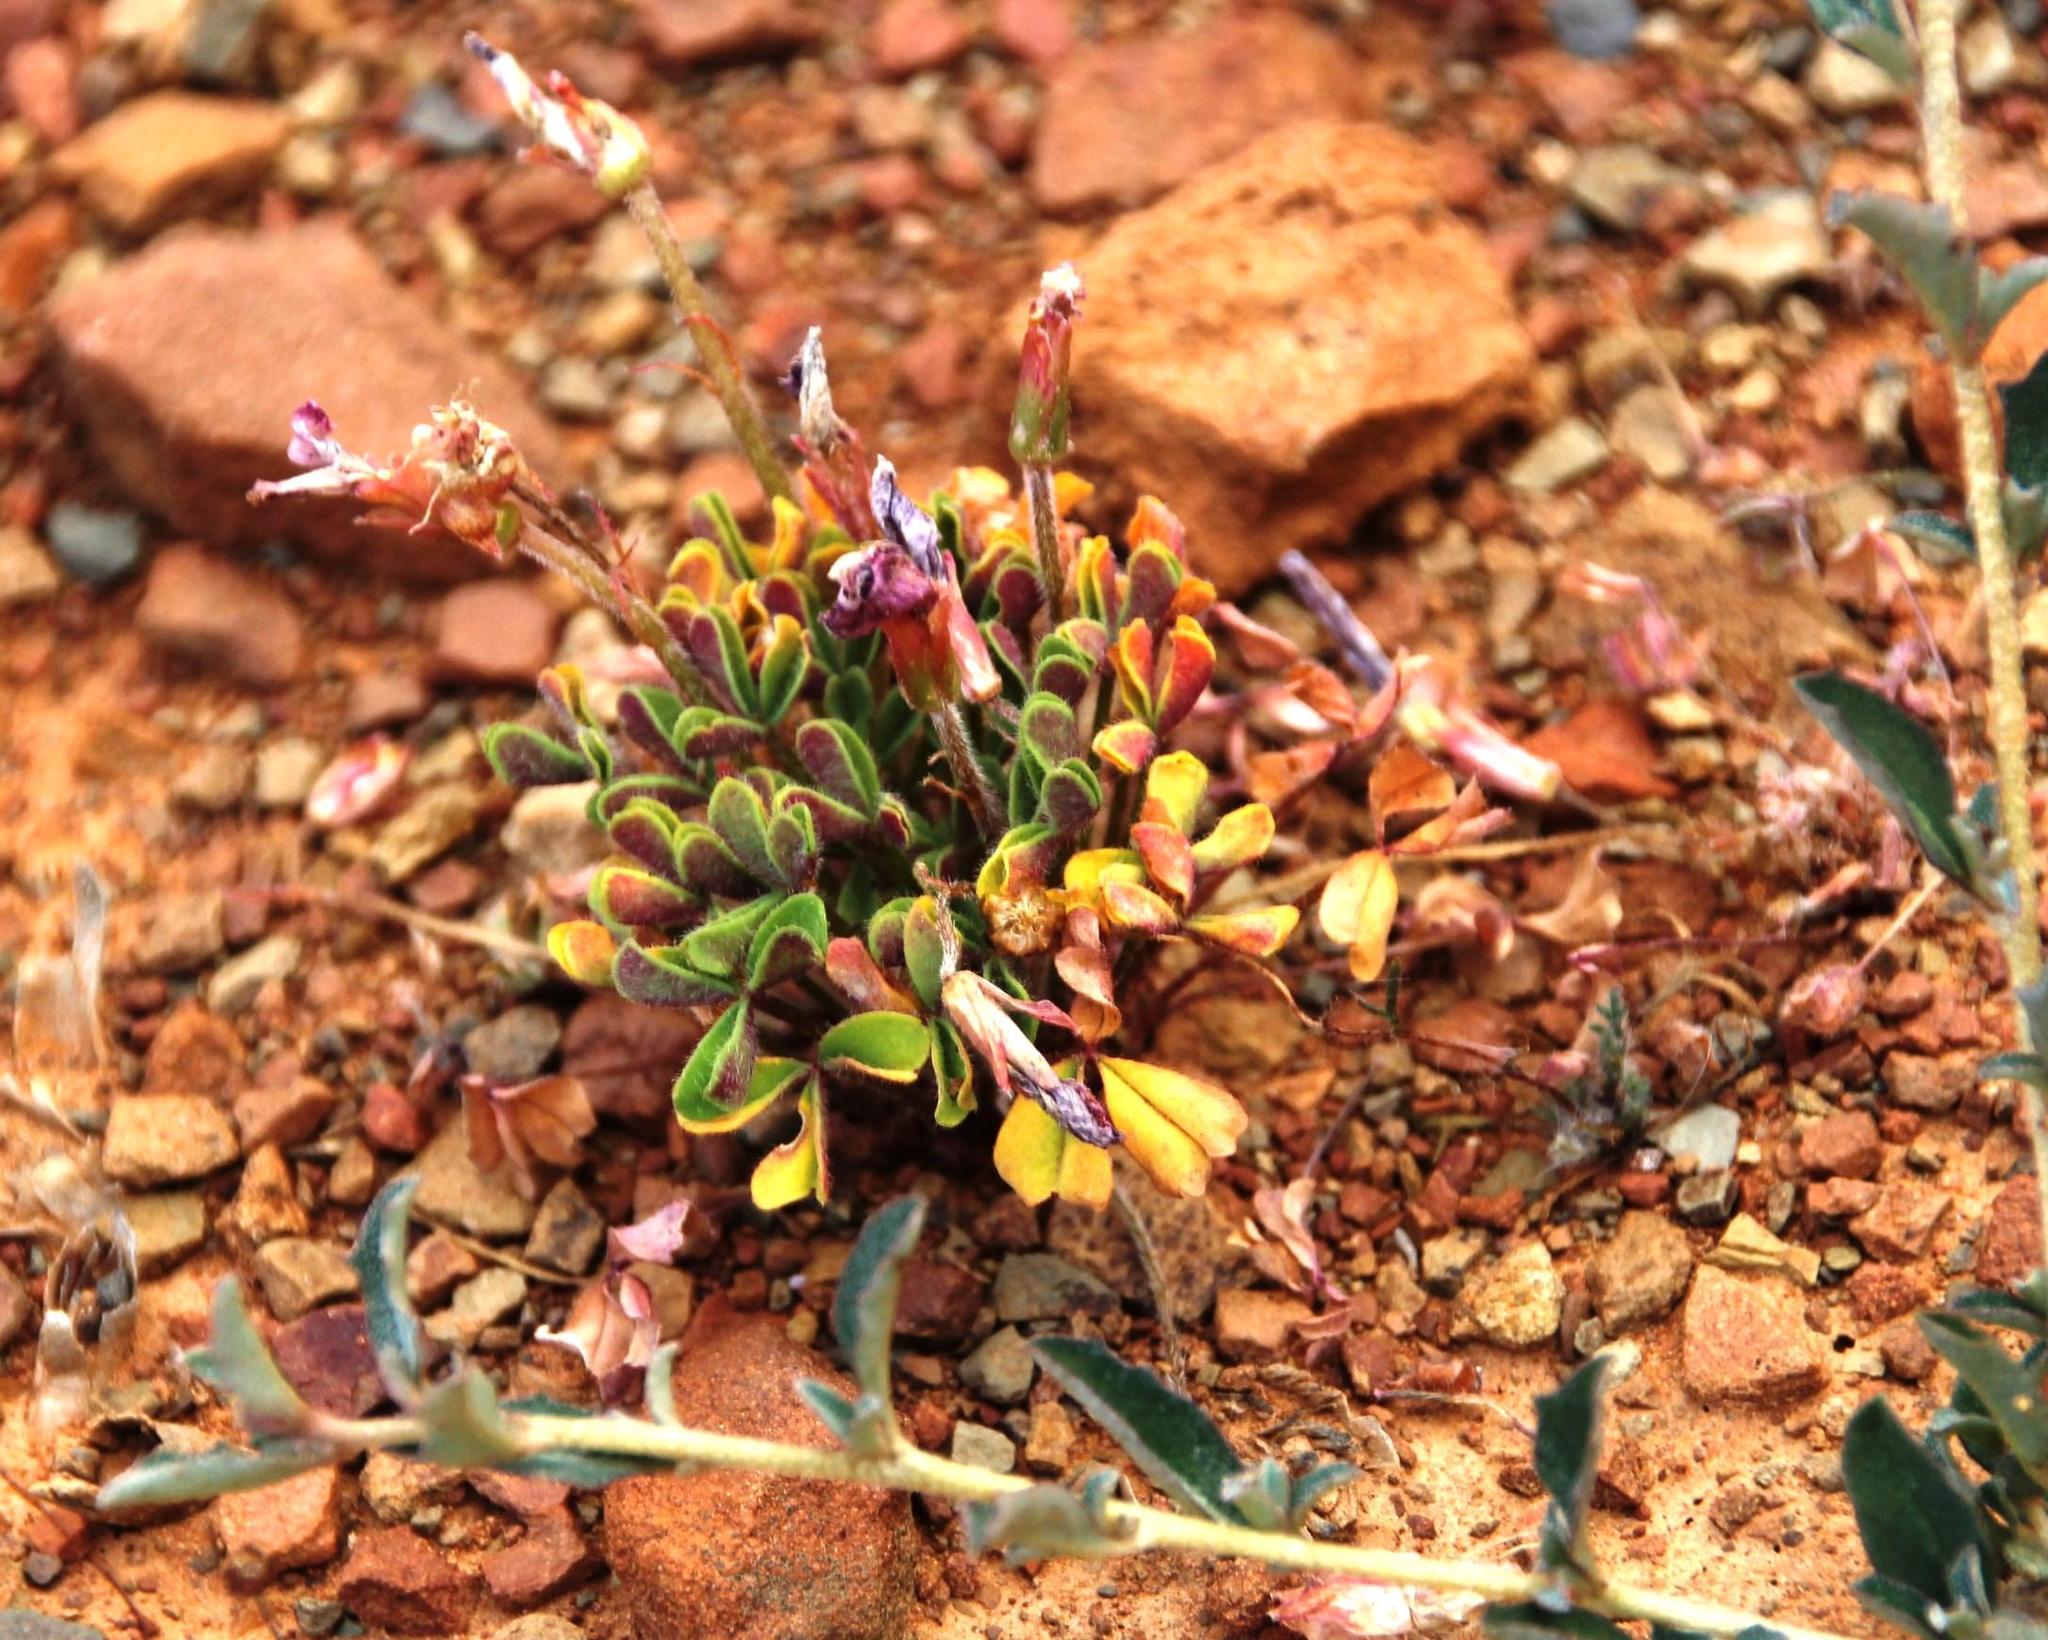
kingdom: Plantae
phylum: Tracheophyta
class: Magnoliopsida
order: Oxalidales
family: Oxalidaceae
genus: Oxalis
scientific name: Oxalis obtusa
